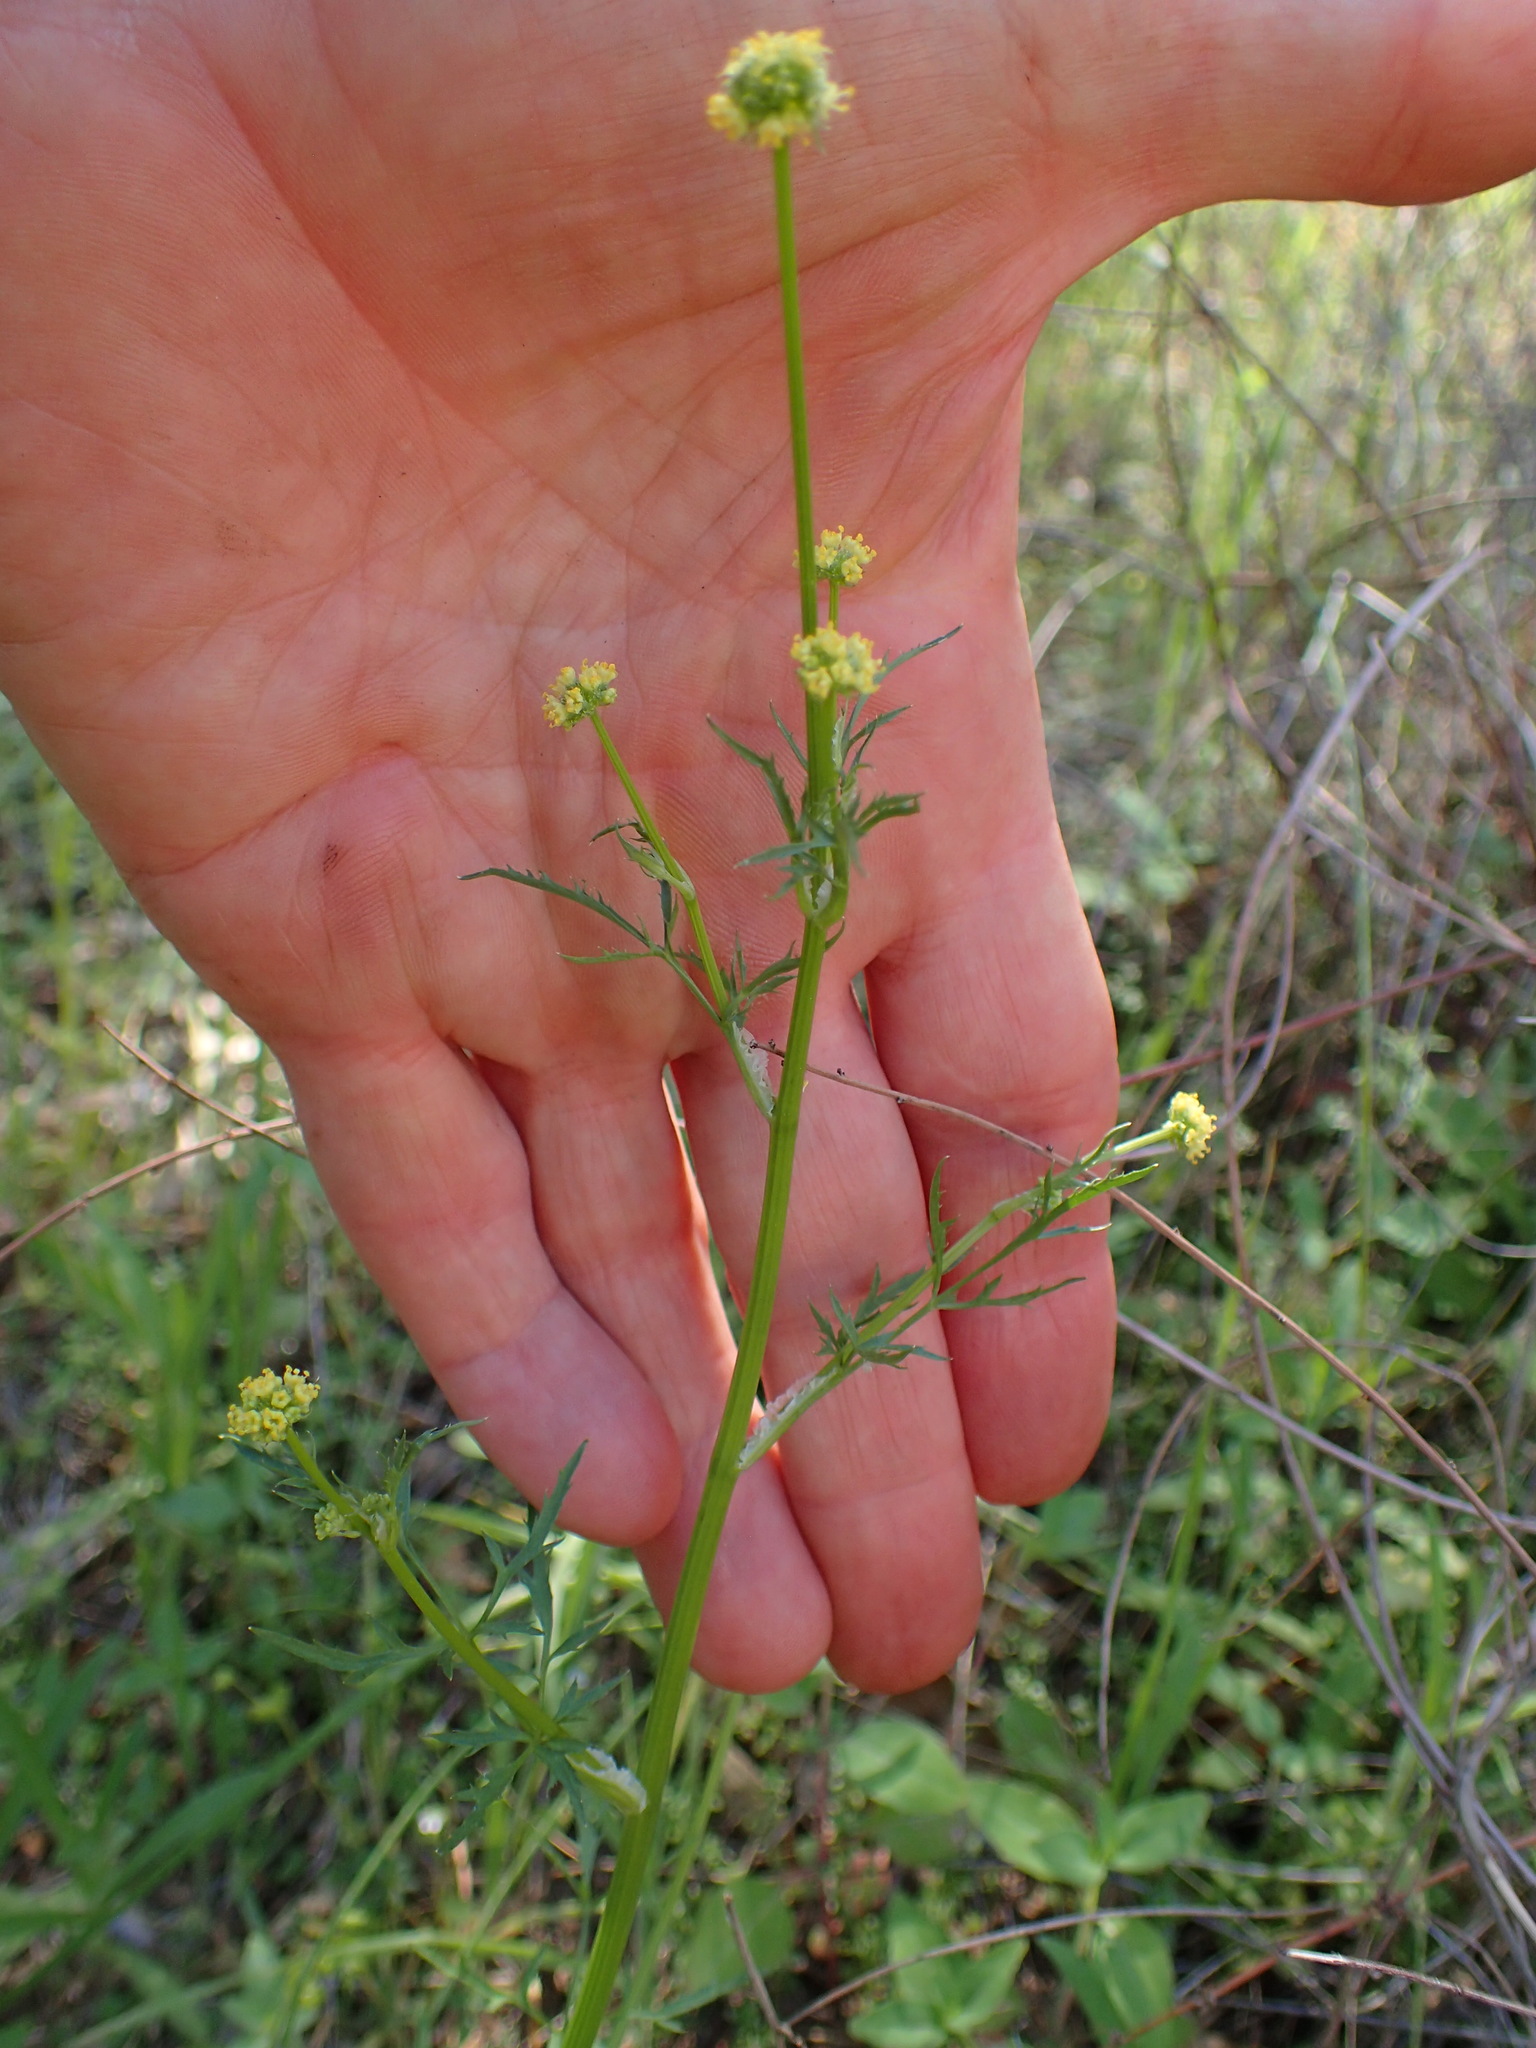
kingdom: Plantae
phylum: Tracheophyta
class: Magnoliopsida
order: Apiales
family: Apiaceae
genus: Sanicula
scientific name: Sanicula tuberosa
